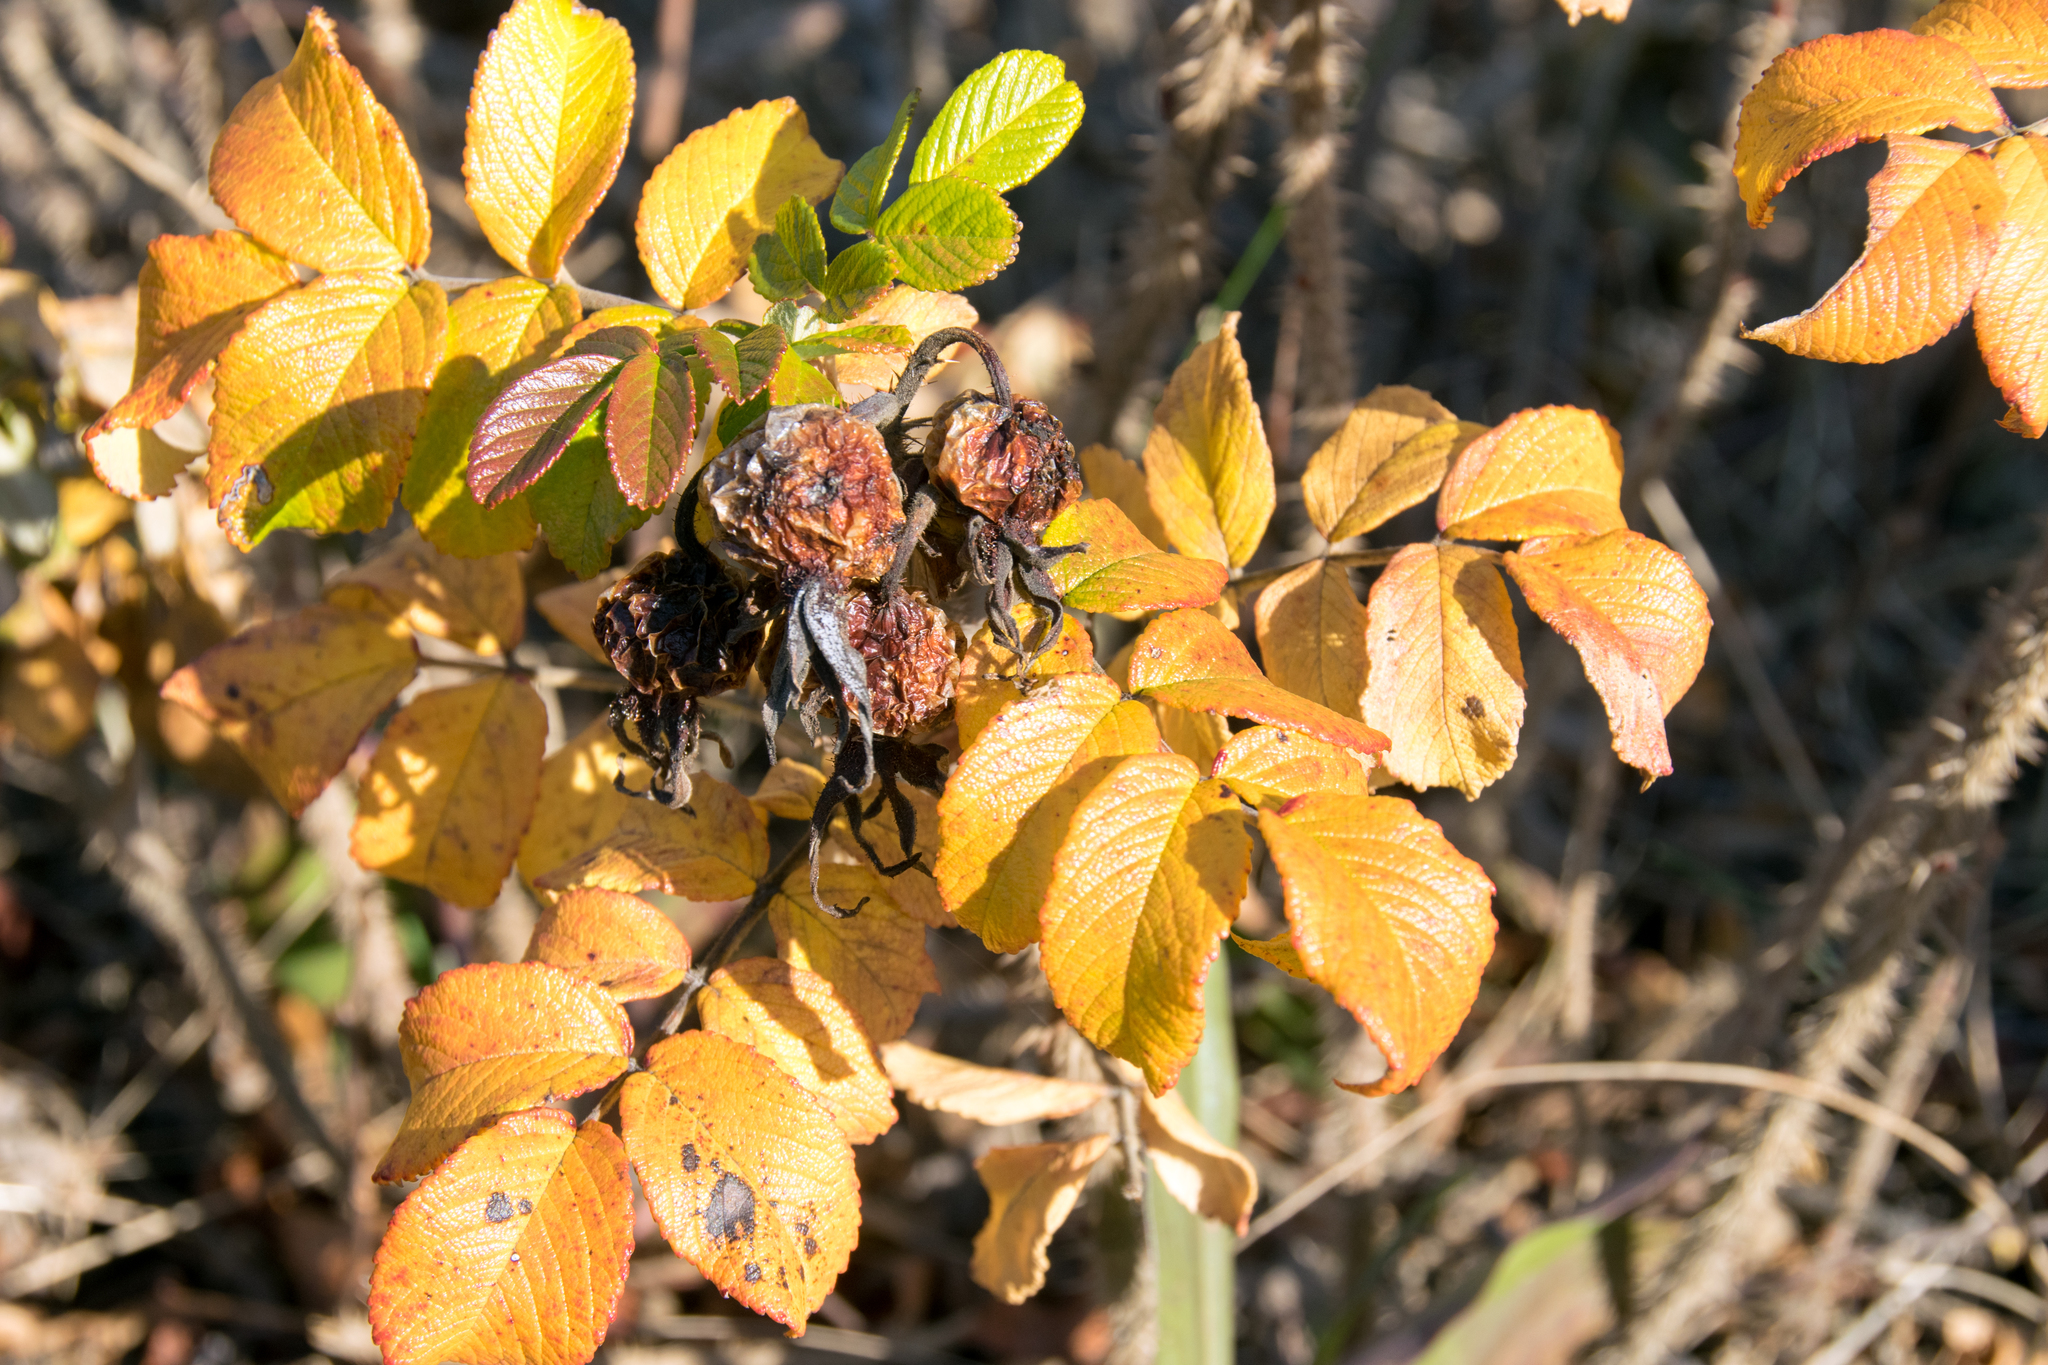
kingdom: Plantae
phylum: Tracheophyta
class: Magnoliopsida
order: Rosales
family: Rosaceae
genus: Rosa
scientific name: Rosa rugosa
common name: Japanese rose
